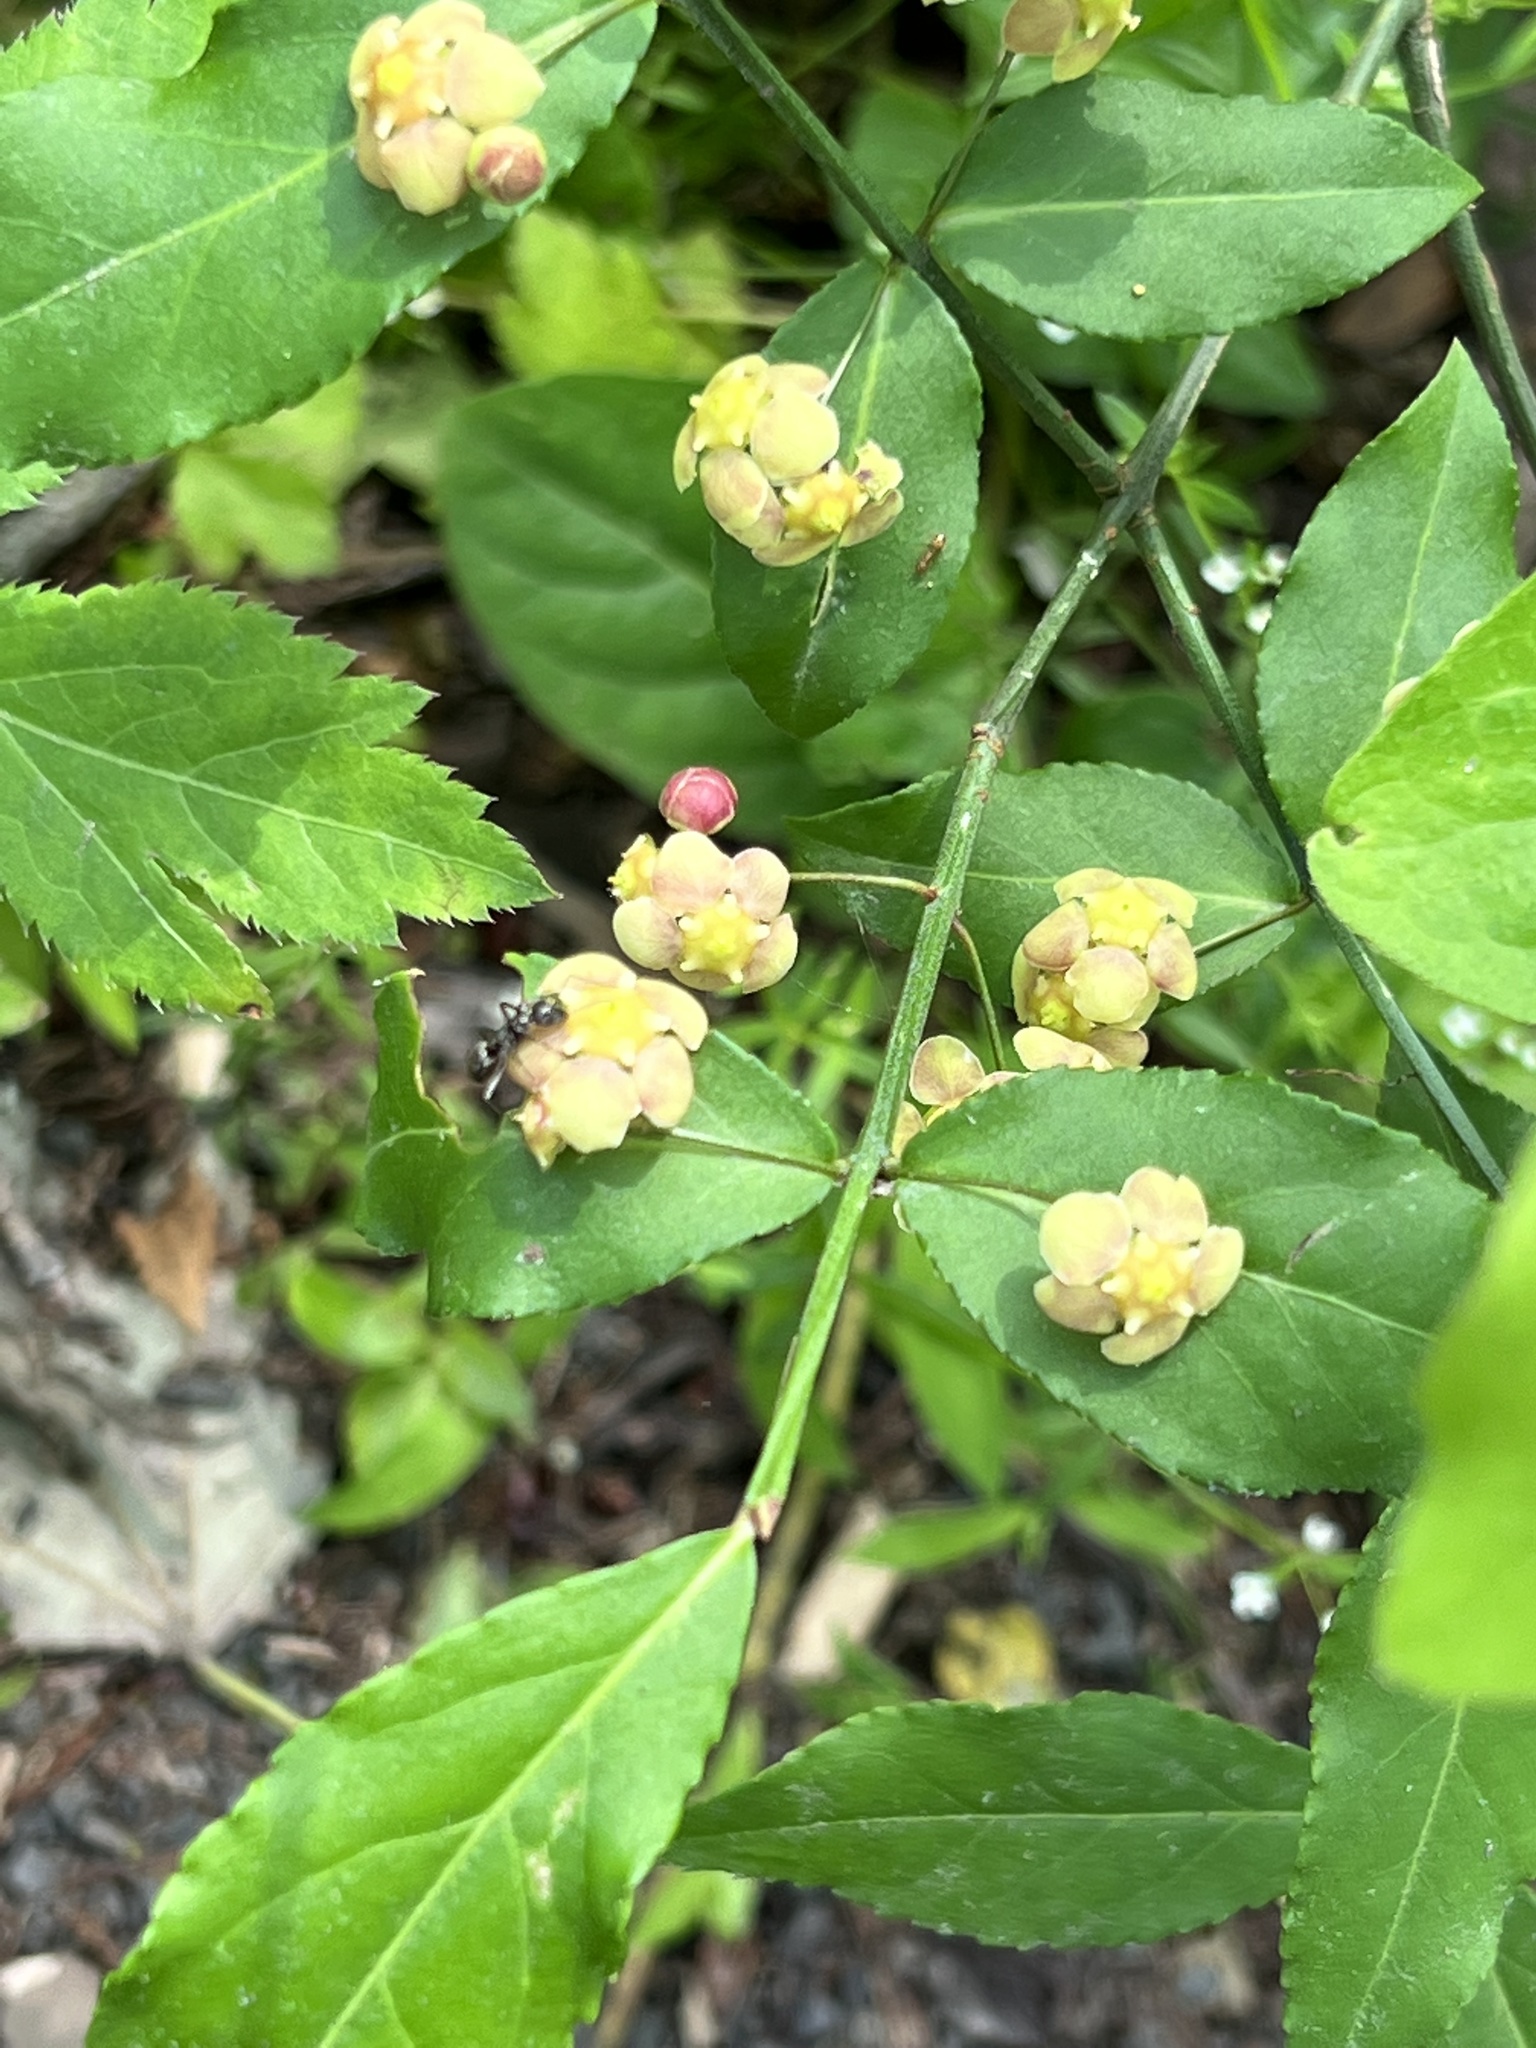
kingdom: Plantae
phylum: Tracheophyta
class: Magnoliopsida
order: Celastrales
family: Celastraceae
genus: Euonymus
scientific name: Euonymus americanus
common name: Bursting-heart
